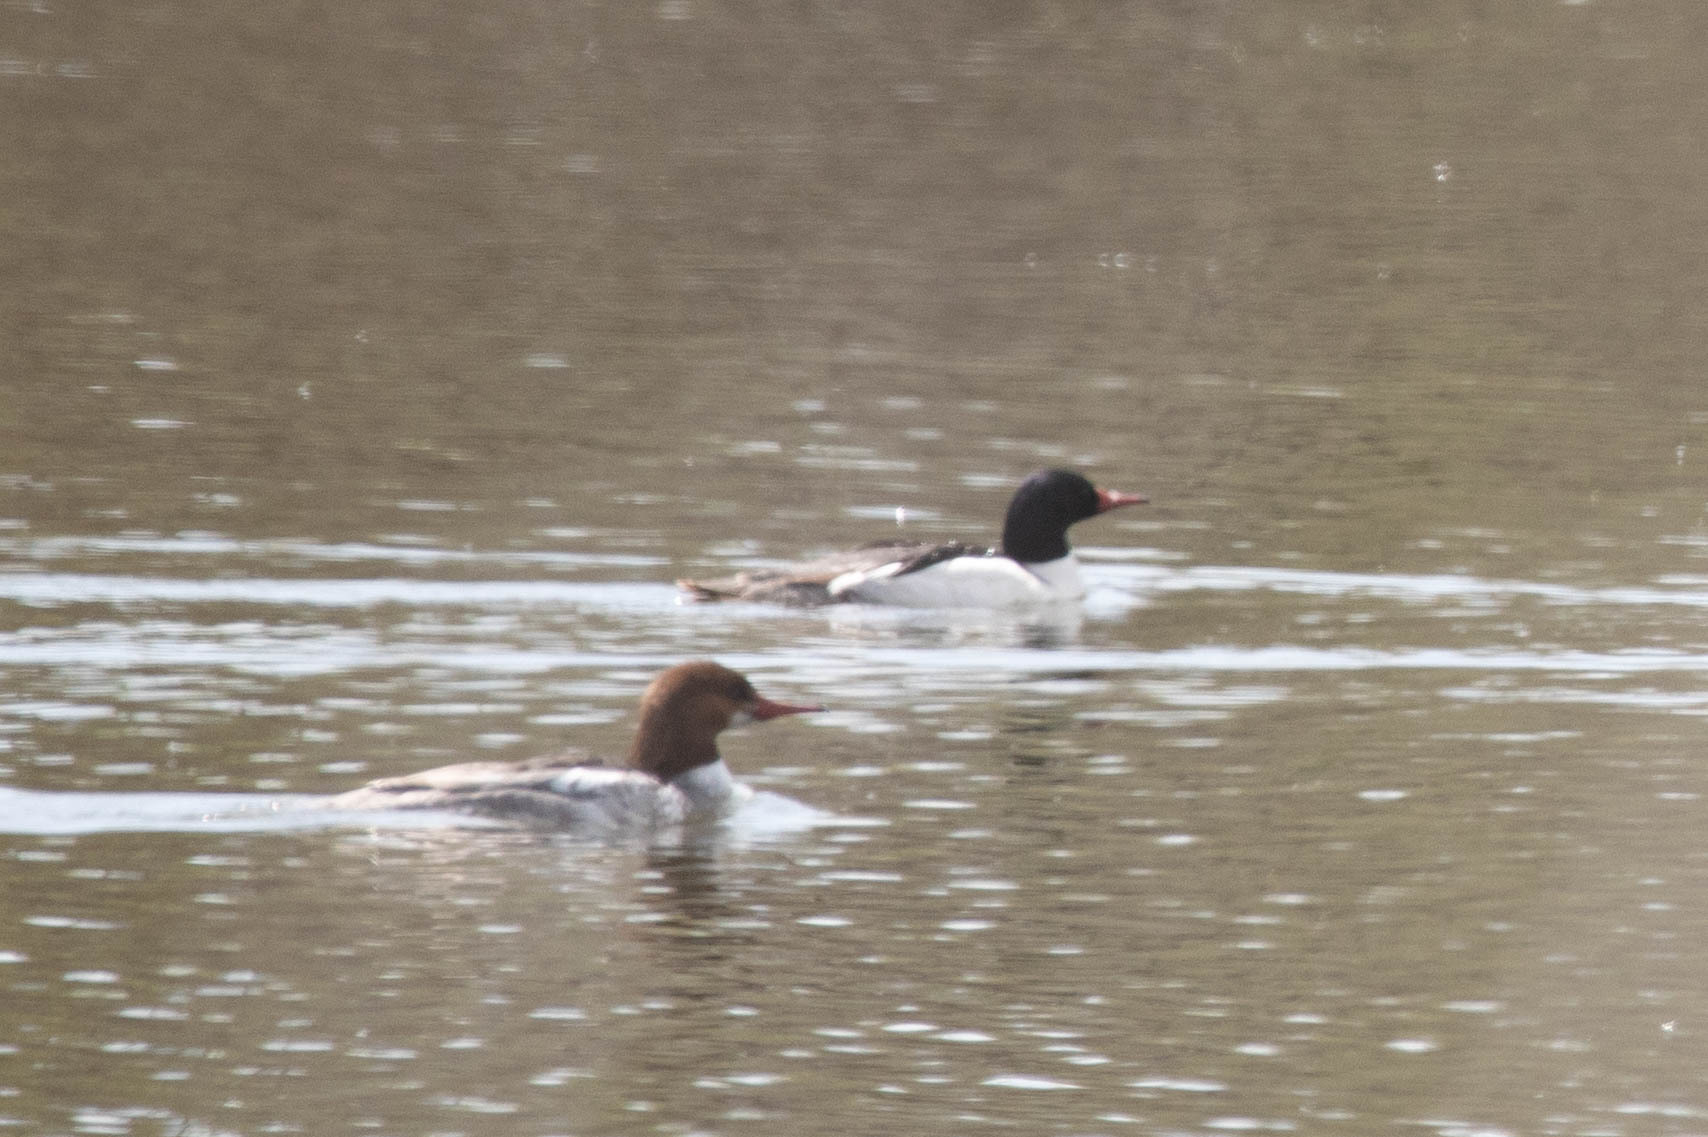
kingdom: Animalia
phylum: Chordata
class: Aves
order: Anseriformes
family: Anatidae
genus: Mergus
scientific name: Mergus merganser
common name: Common merganser
